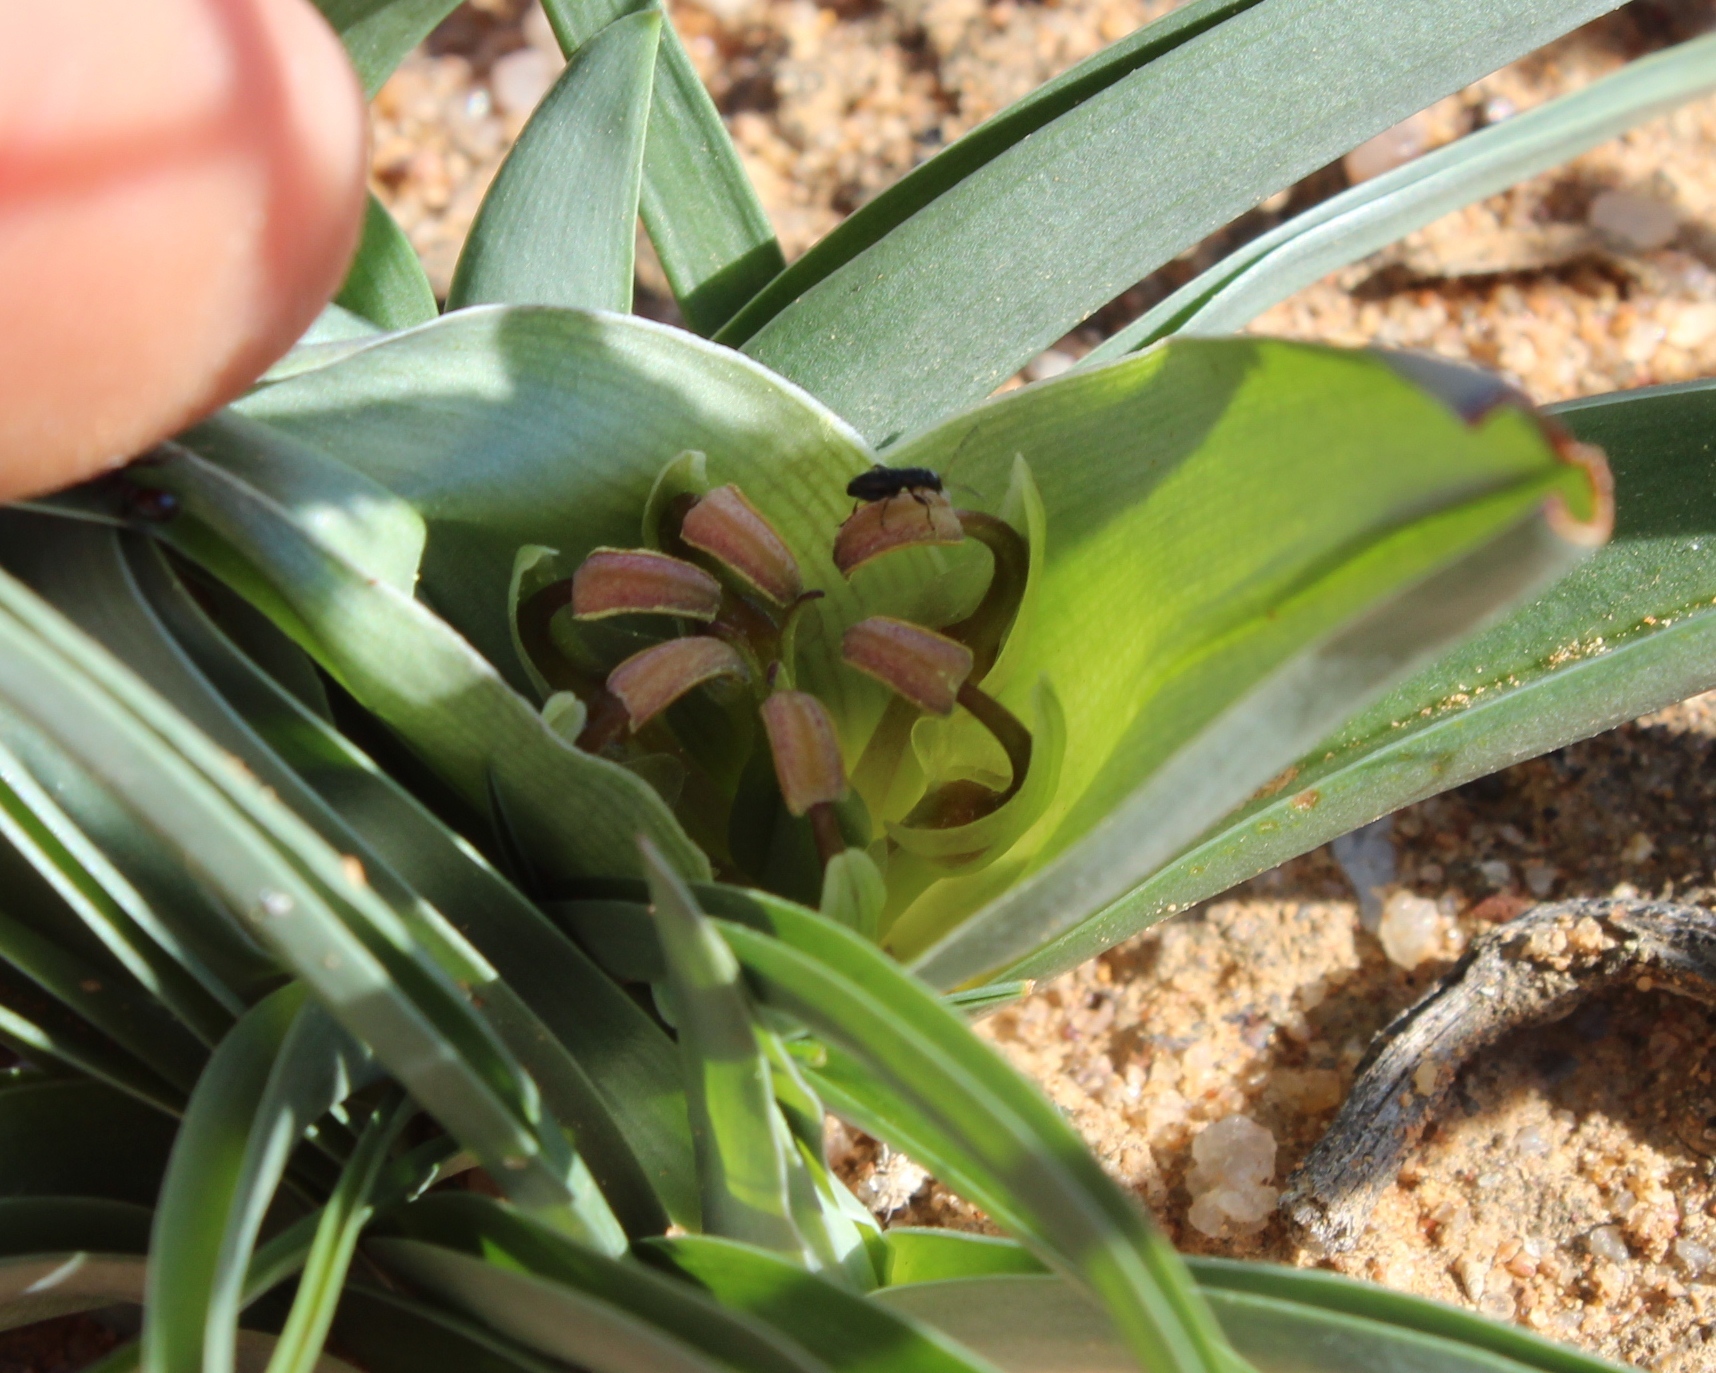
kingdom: Plantae
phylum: Tracheophyta
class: Liliopsida
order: Liliales
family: Colchicaceae
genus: Colchicum
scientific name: Colchicum albomarginatum
